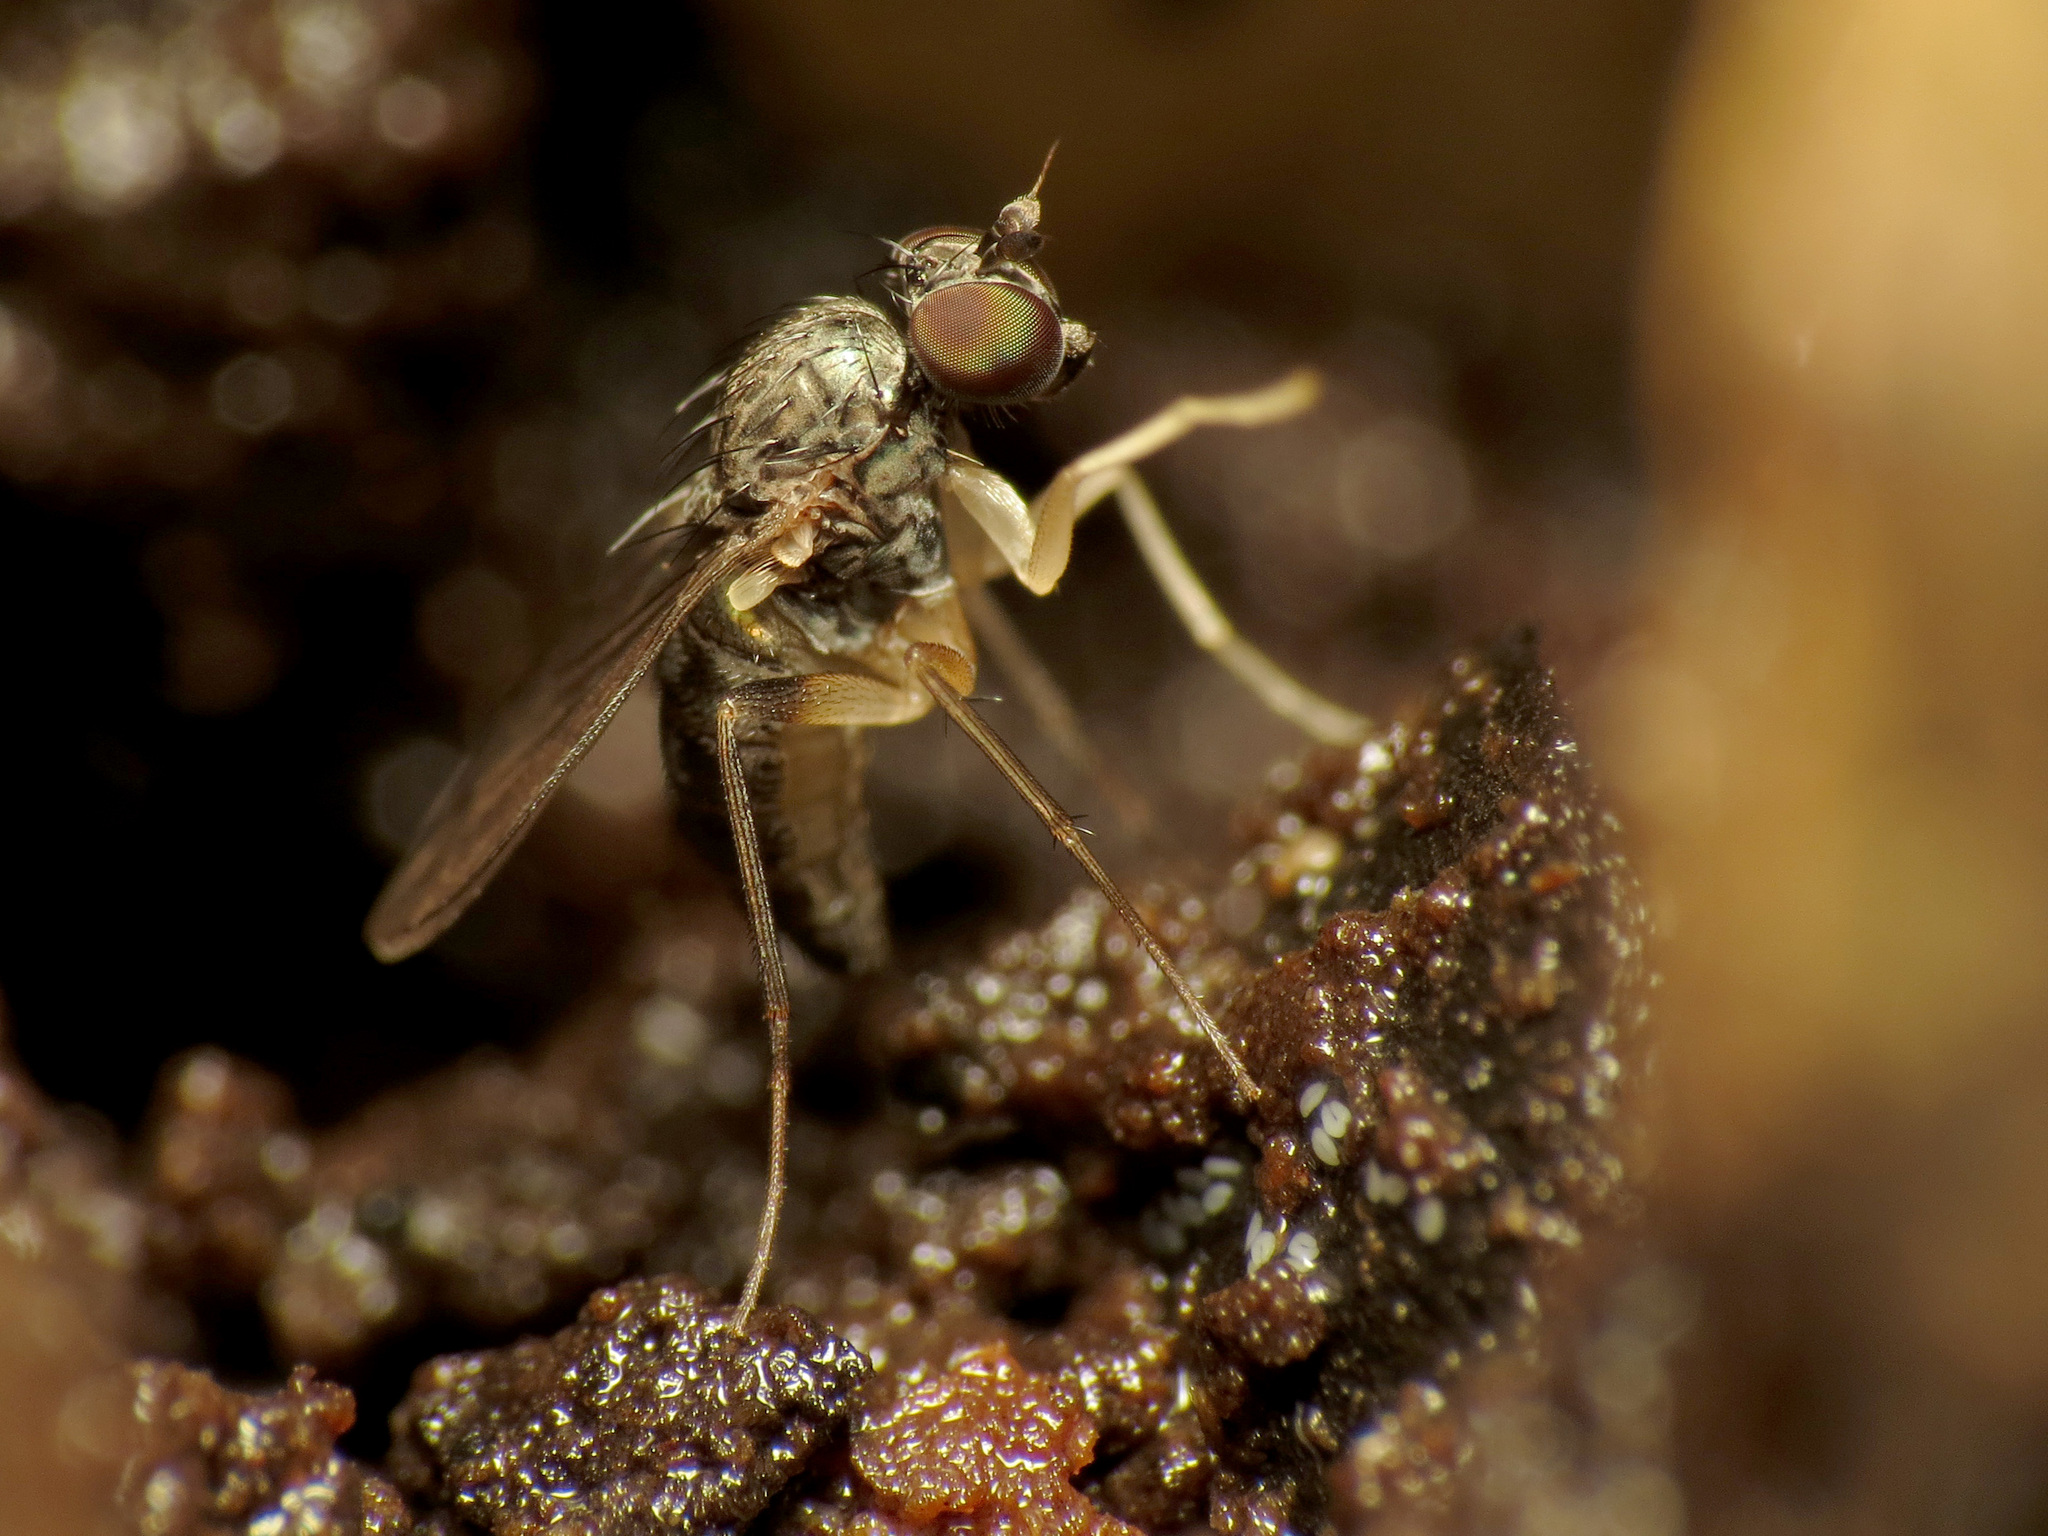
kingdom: Animalia
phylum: Arthropoda
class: Insecta
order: Diptera
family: Dolichopodidae
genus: Systenus
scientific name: Systenus albimanus
